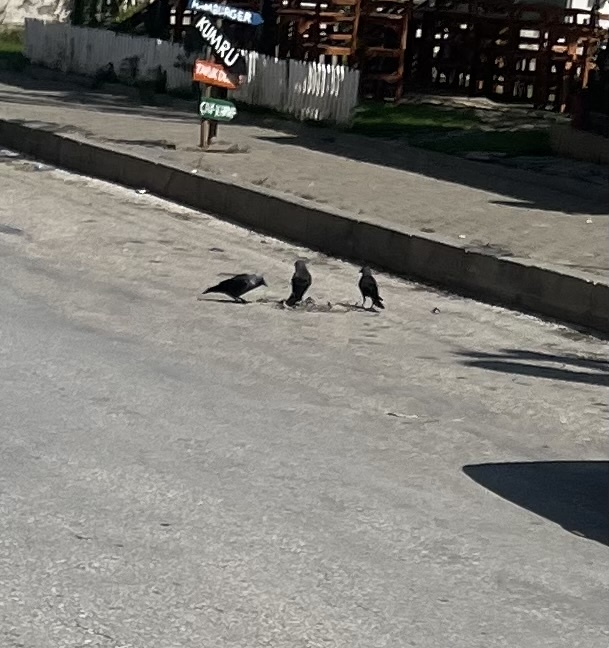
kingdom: Animalia
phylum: Chordata
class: Aves
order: Passeriformes
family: Corvidae
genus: Coloeus
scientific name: Coloeus monedula
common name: Western jackdaw
